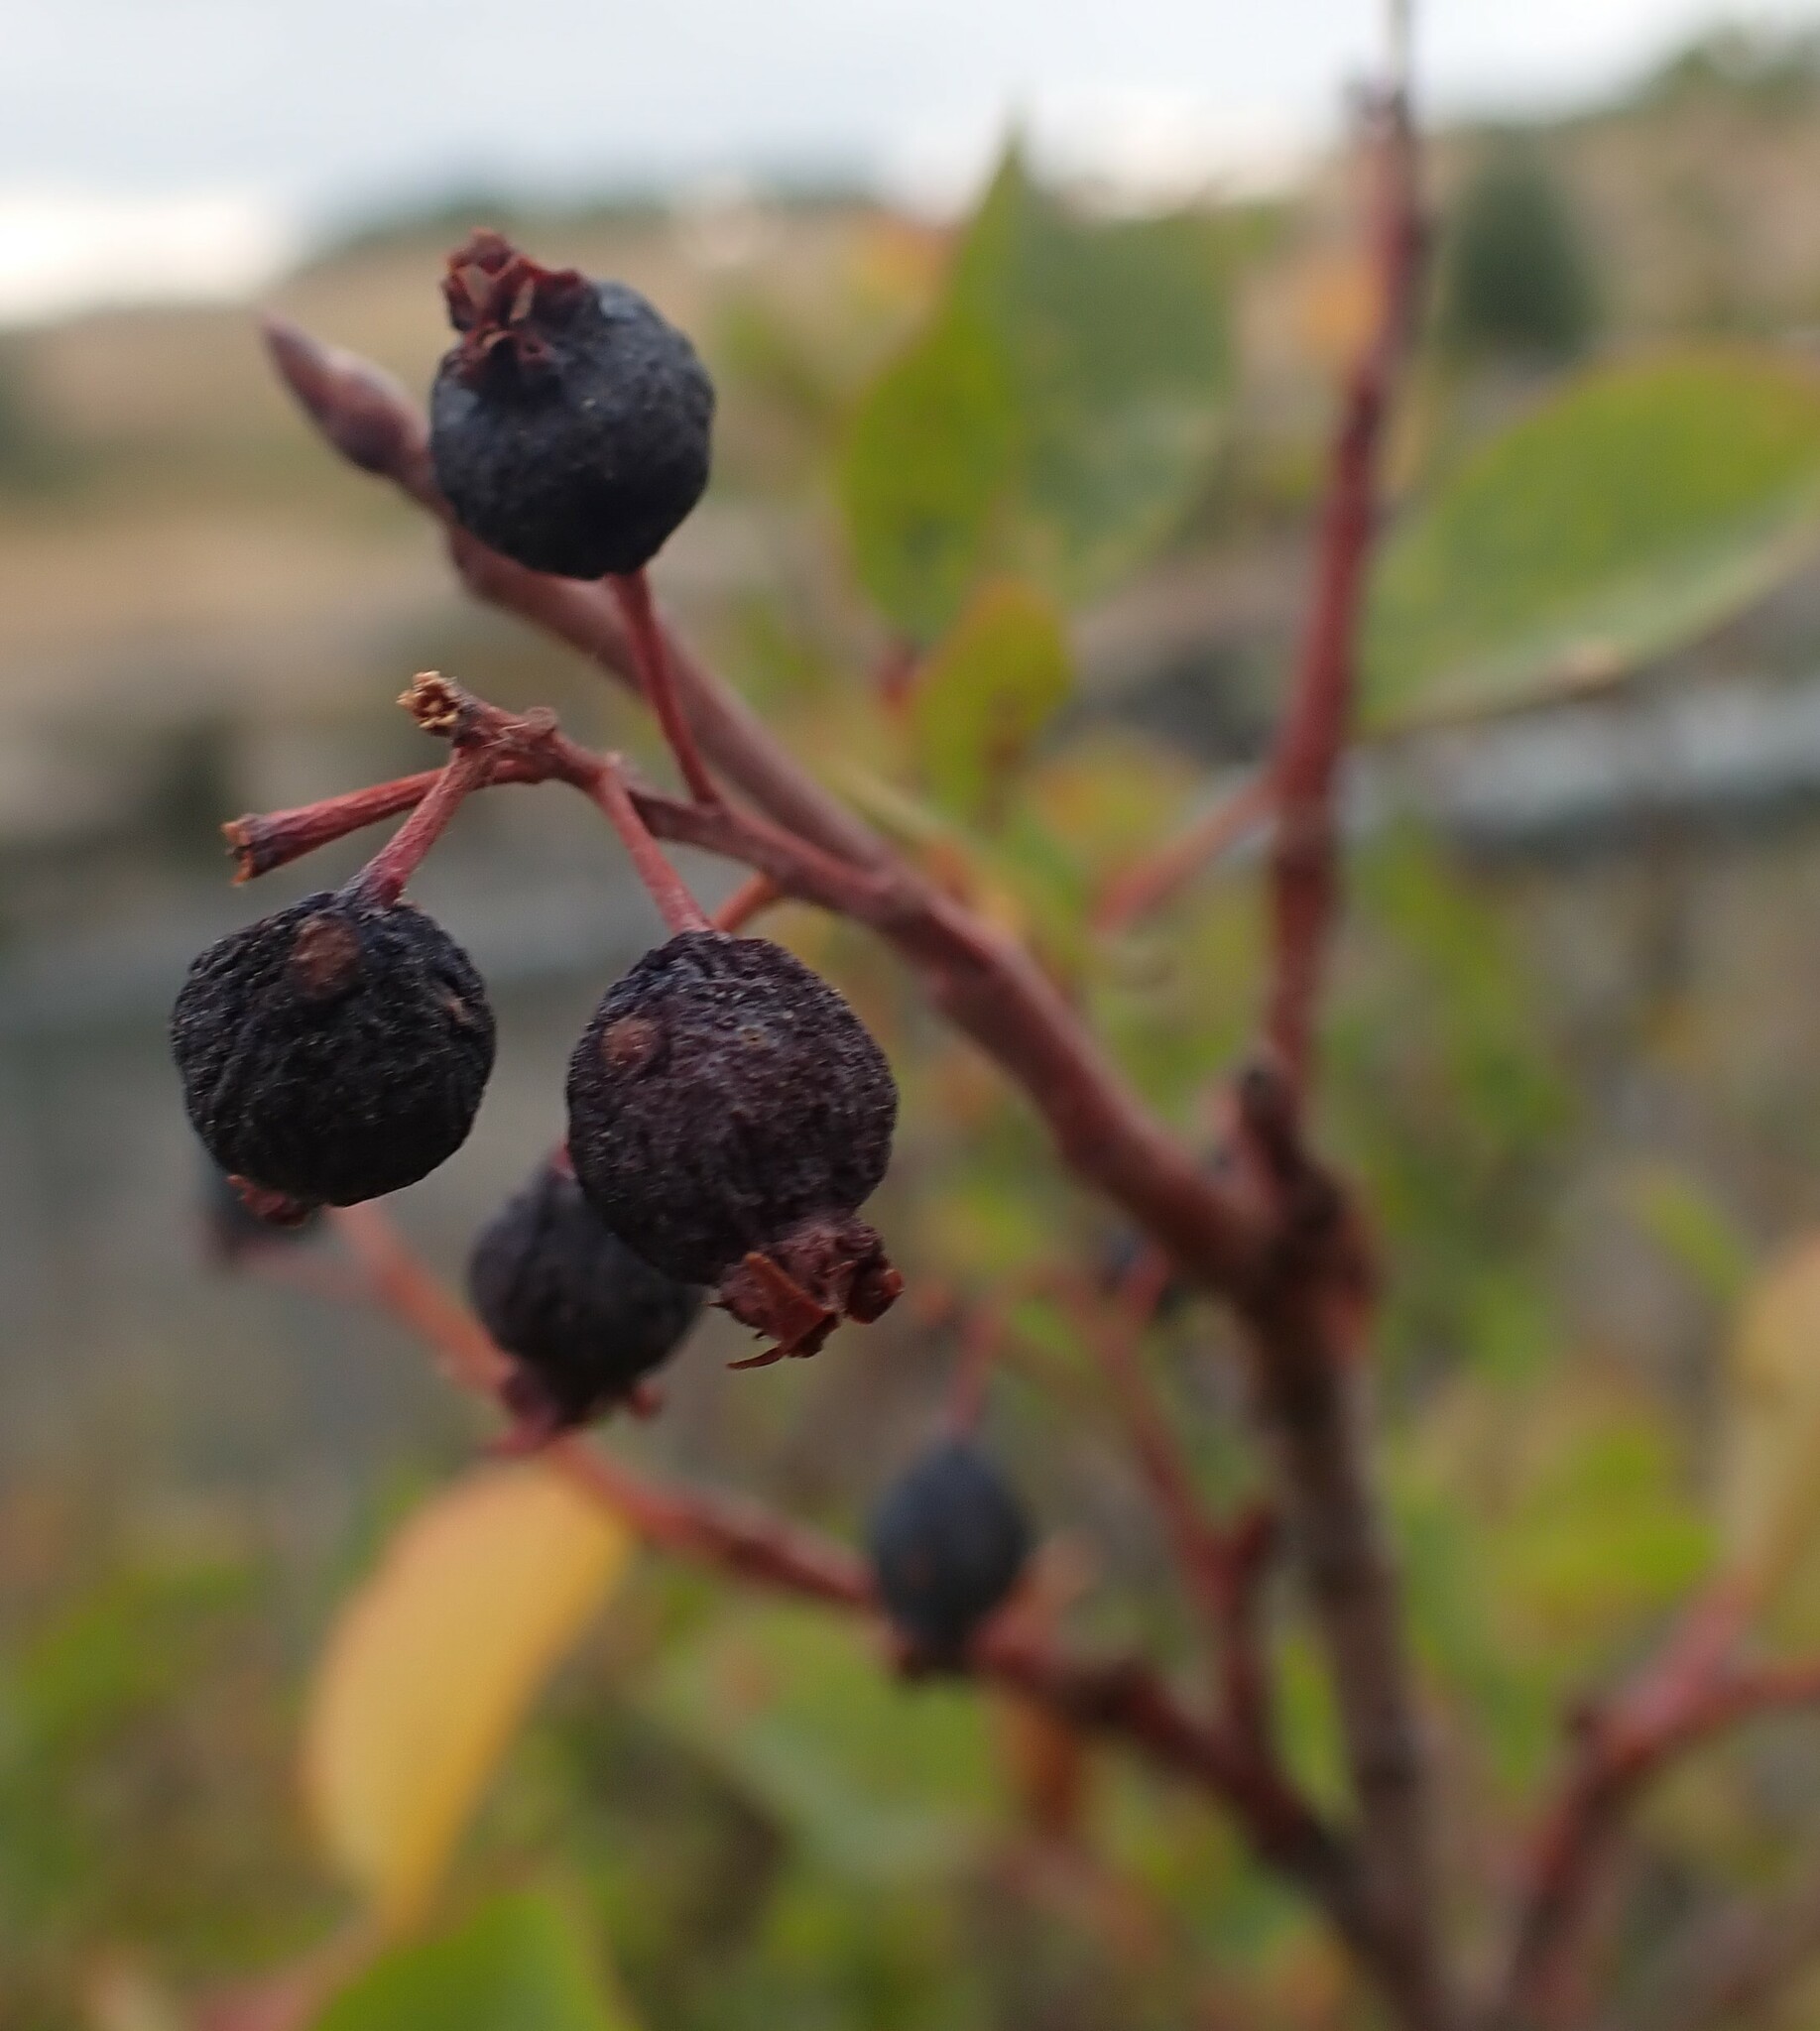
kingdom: Plantae
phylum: Tracheophyta
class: Magnoliopsida
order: Rosales
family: Rosaceae
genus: Amelanchier
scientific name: Amelanchier alnifolia
